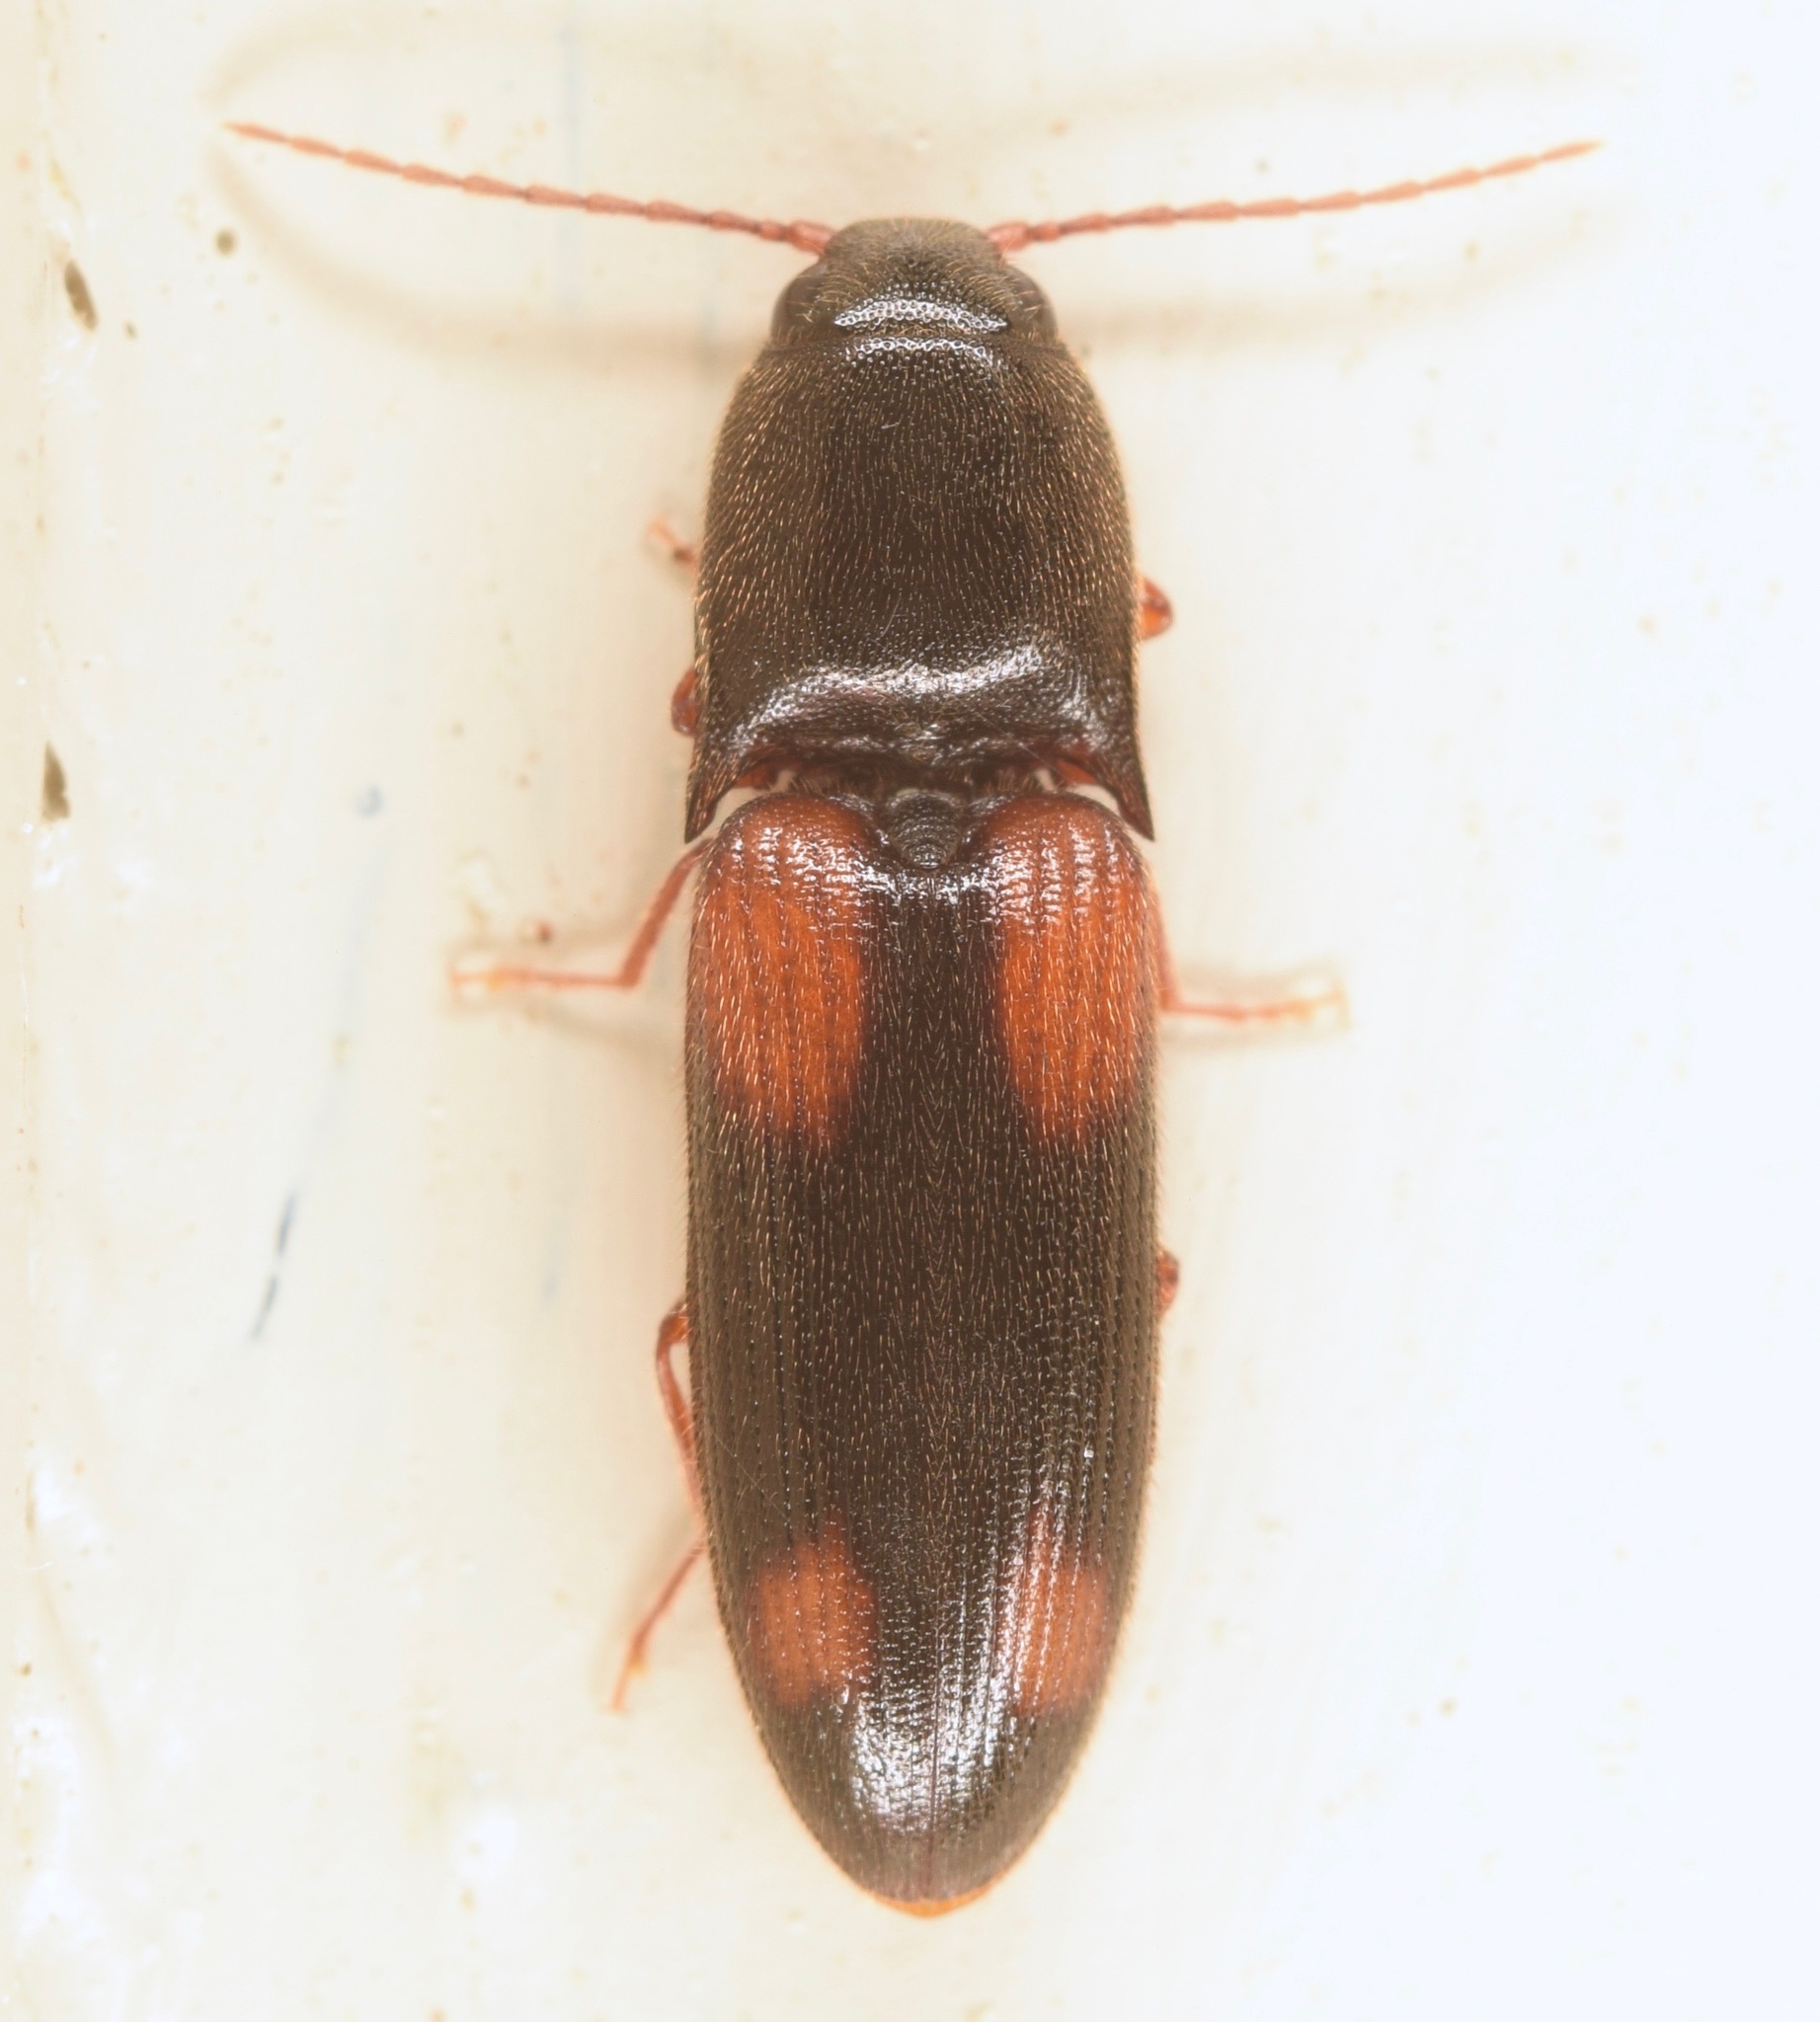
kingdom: Animalia
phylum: Arthropoda
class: Insecta
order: Coleoptera
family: Elateridae
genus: Anchastus
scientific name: Anchastus binus
